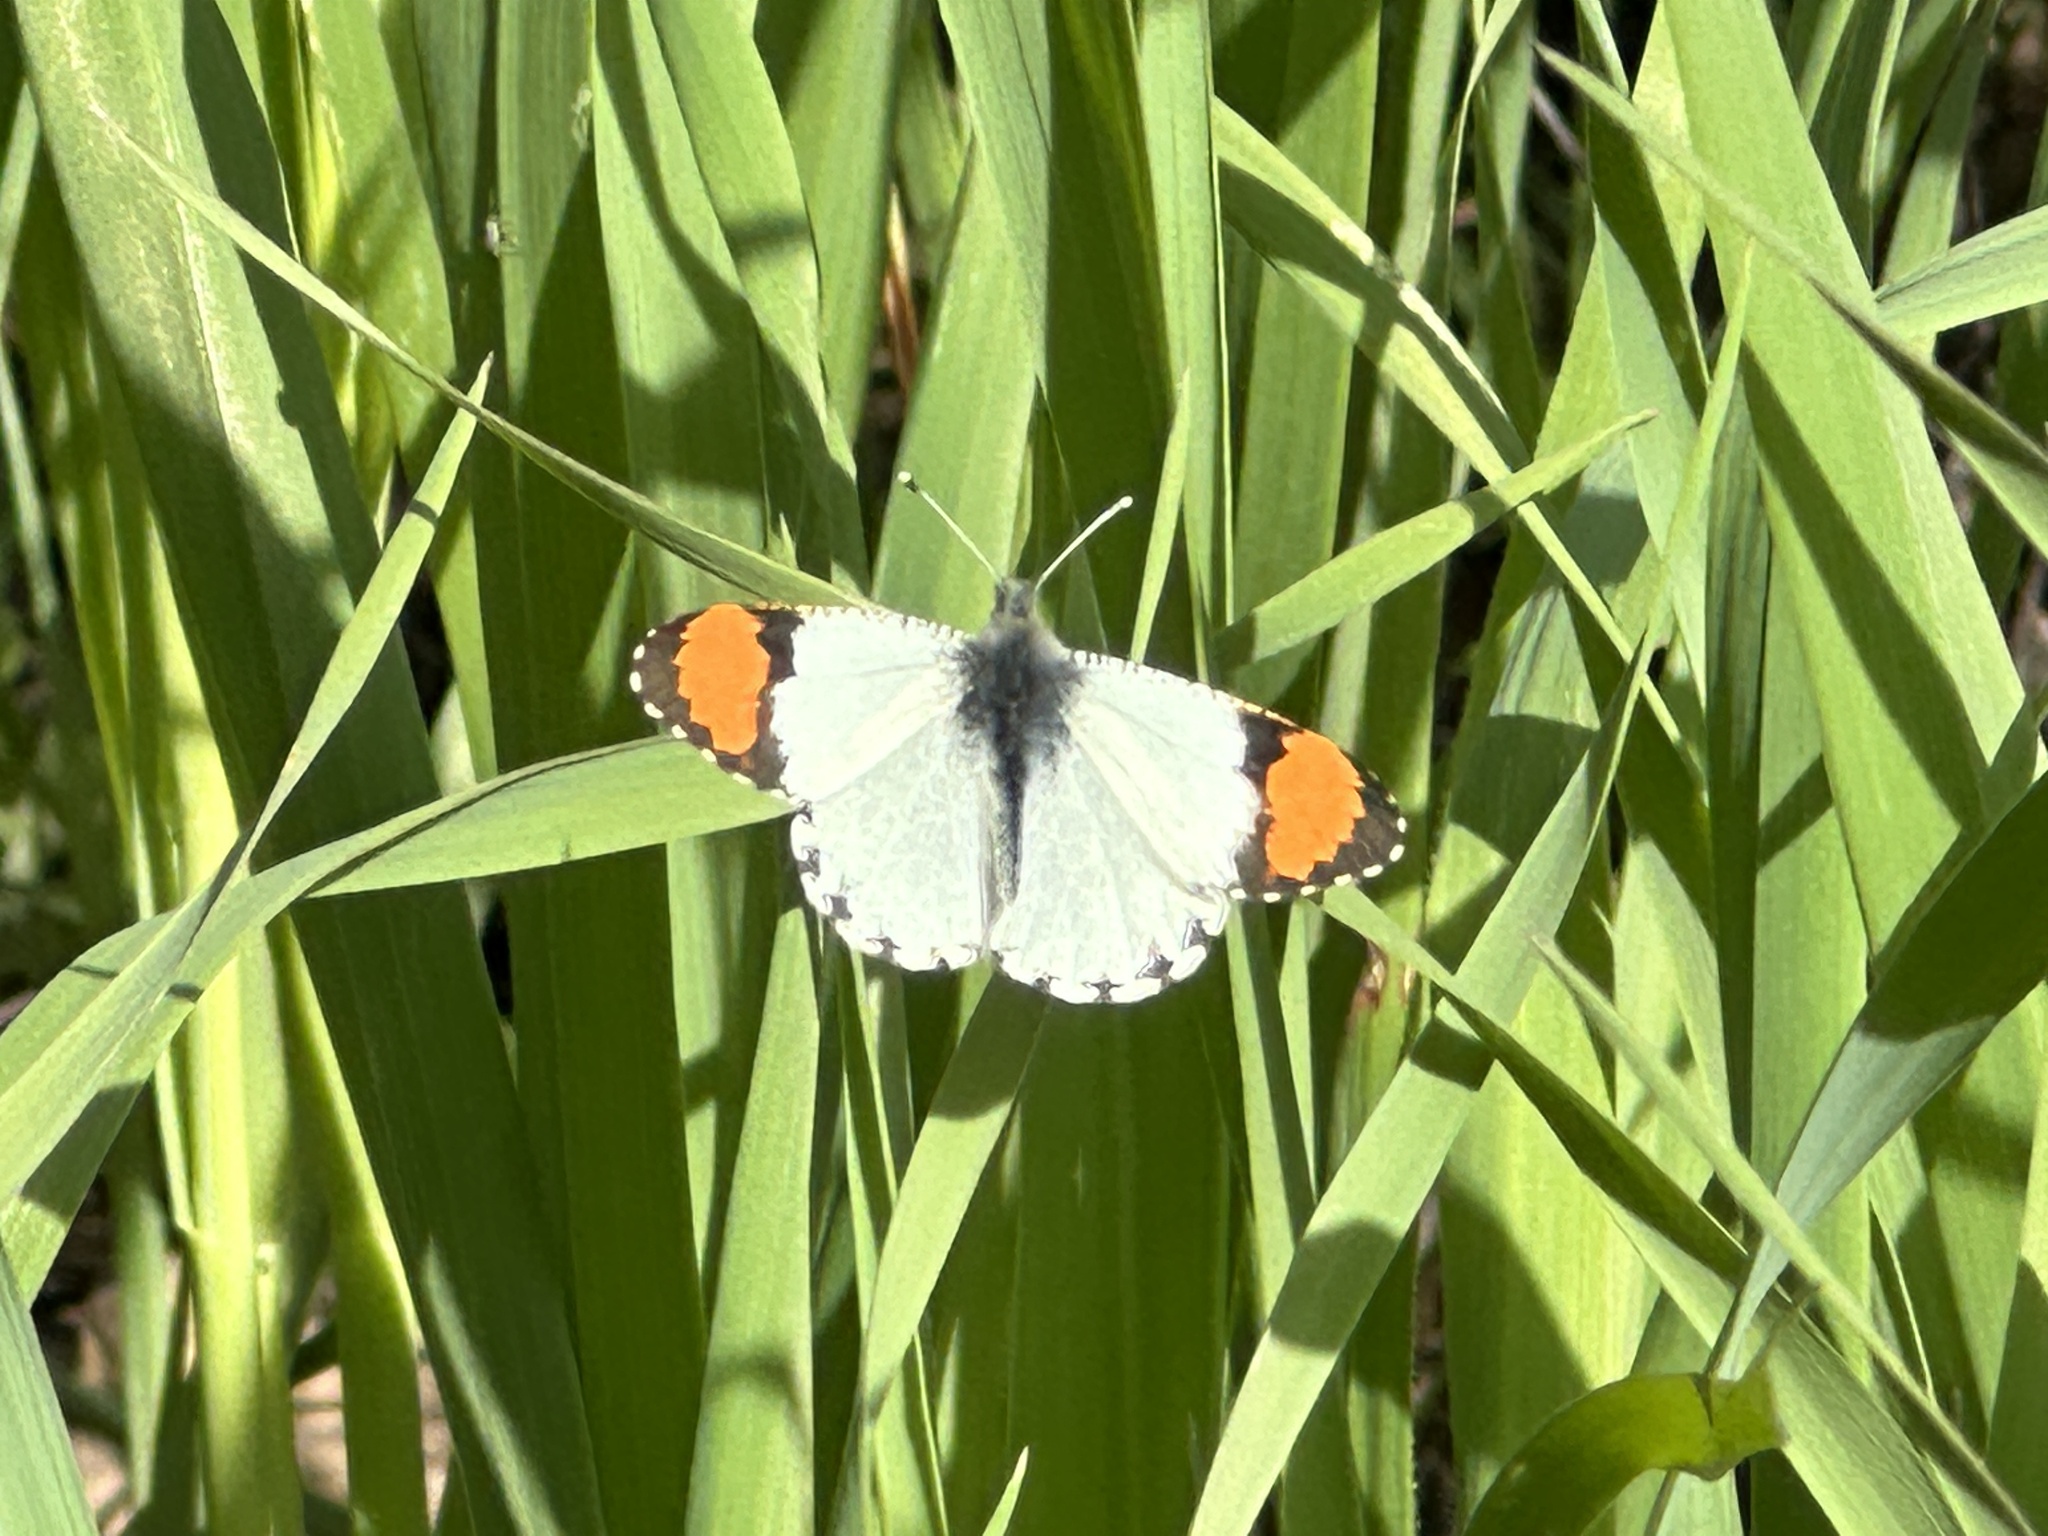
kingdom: Animalia
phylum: Arthropoda
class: Insecta
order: Lepidoptera
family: Pieridae
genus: Anthocharis
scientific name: Anthocharis sara
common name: Sara's orangetip
